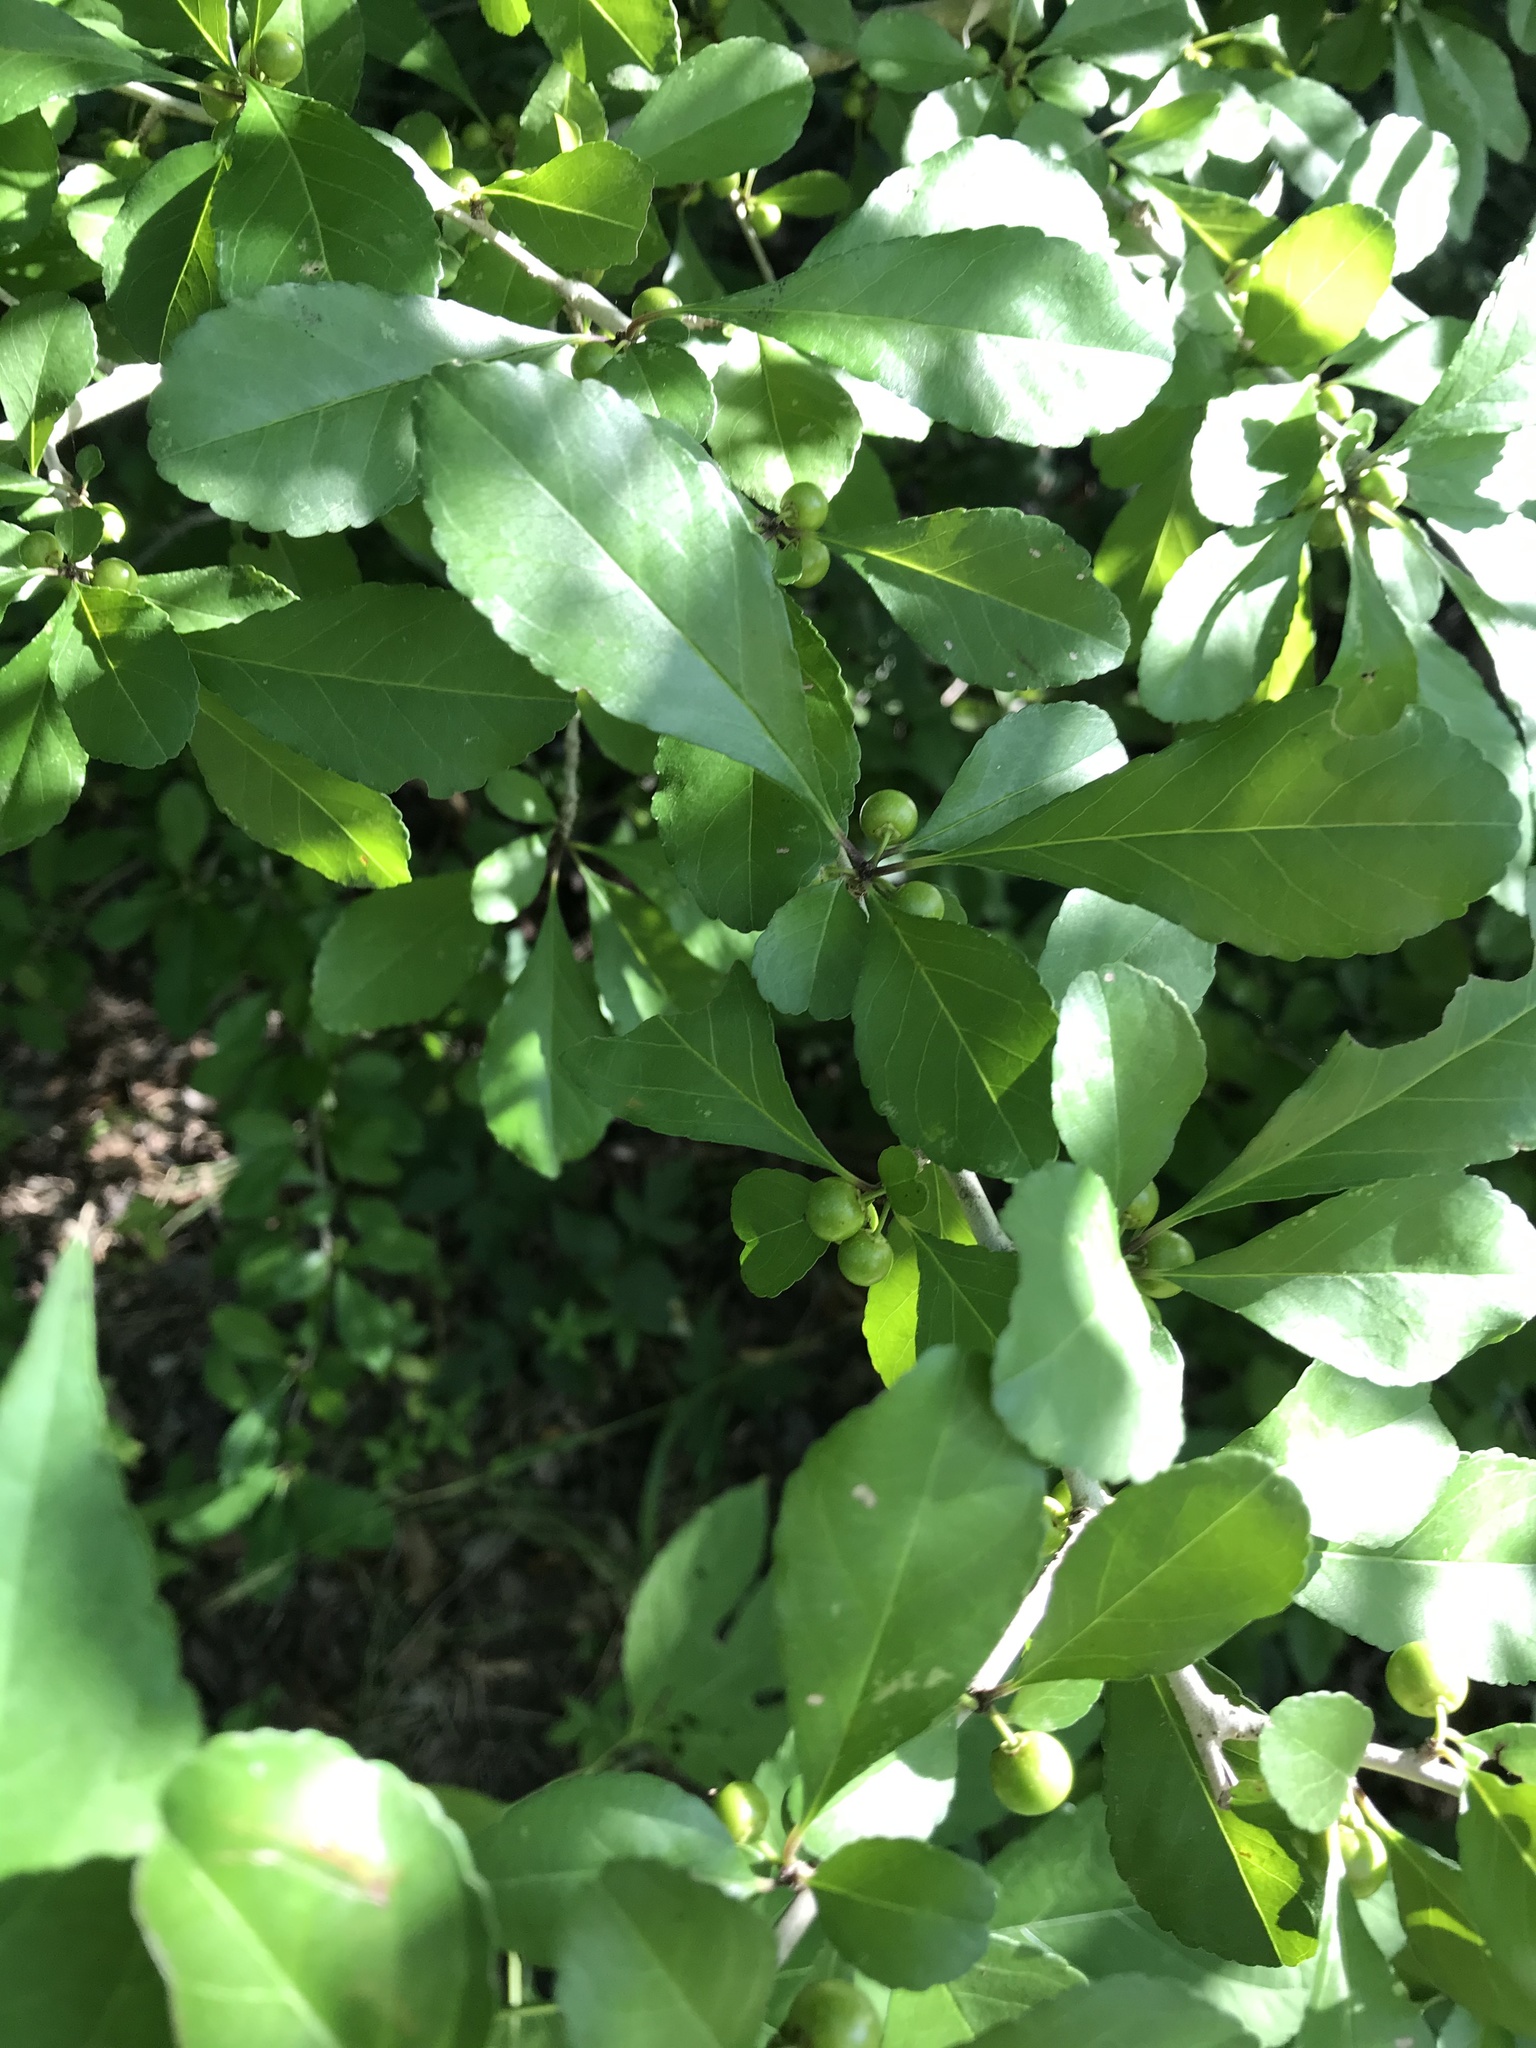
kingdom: Plantae
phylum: Tracheophyta
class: Magnoliopsida
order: Aquifoliales
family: Aquifoliaceae
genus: Ilex
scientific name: Ilex decidua
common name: Possum-haw
